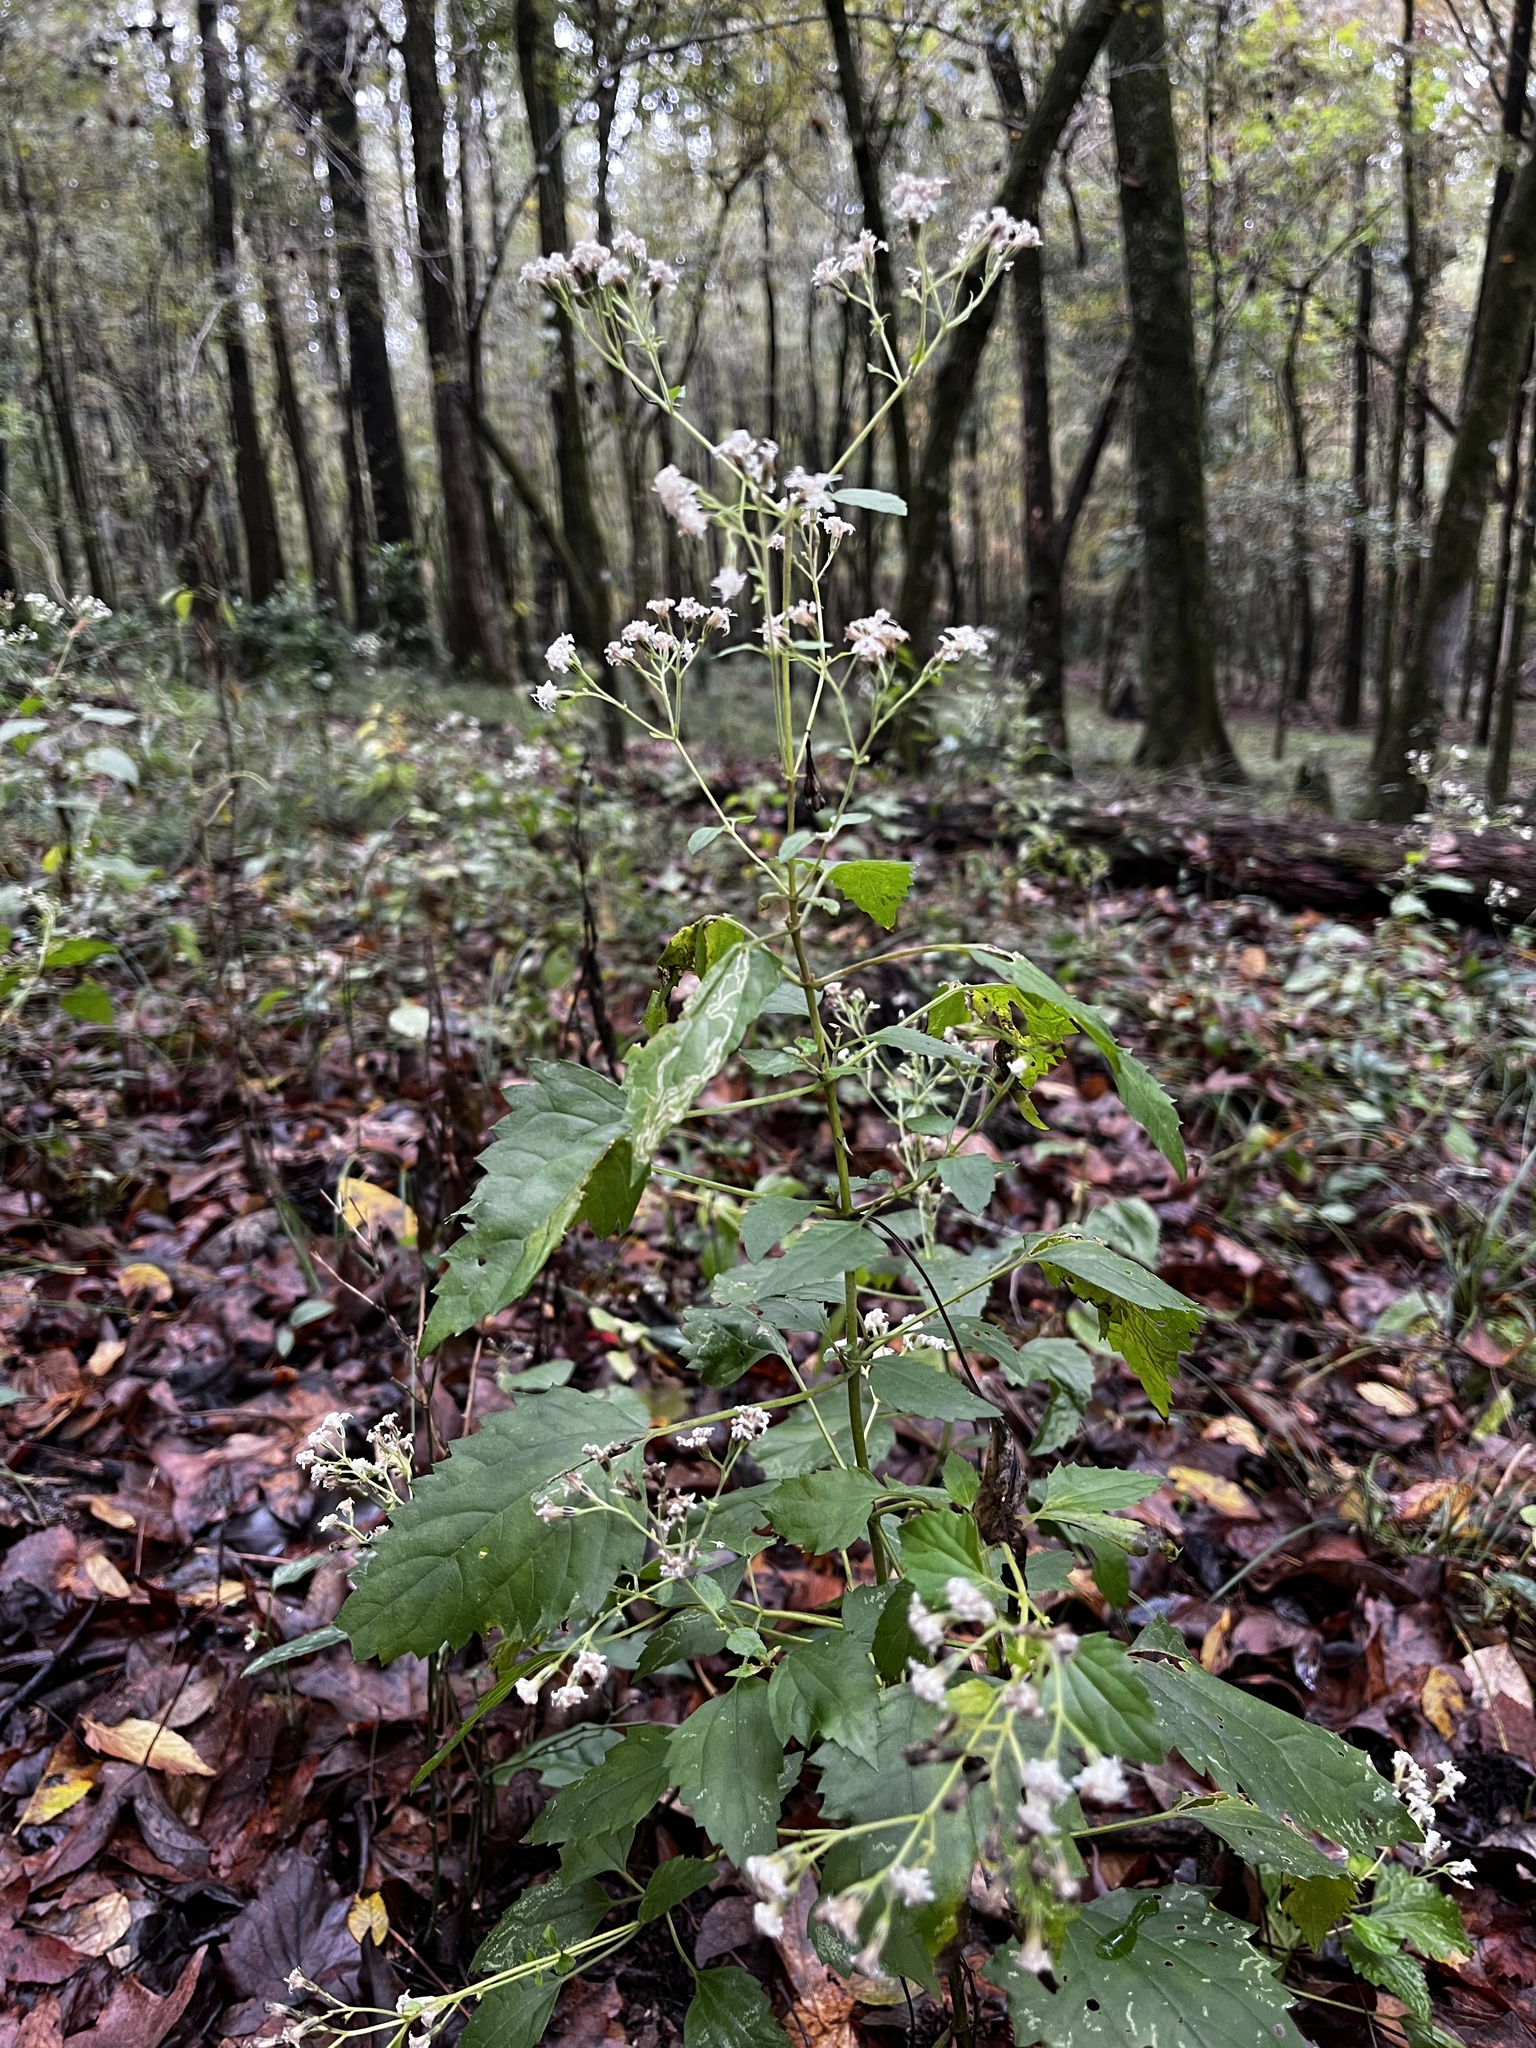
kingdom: Plantae
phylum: Tracheophyta
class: Magnoliopsida
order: Asterales
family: Asteraceae
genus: Ageratina
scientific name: Ageratina jucunda
